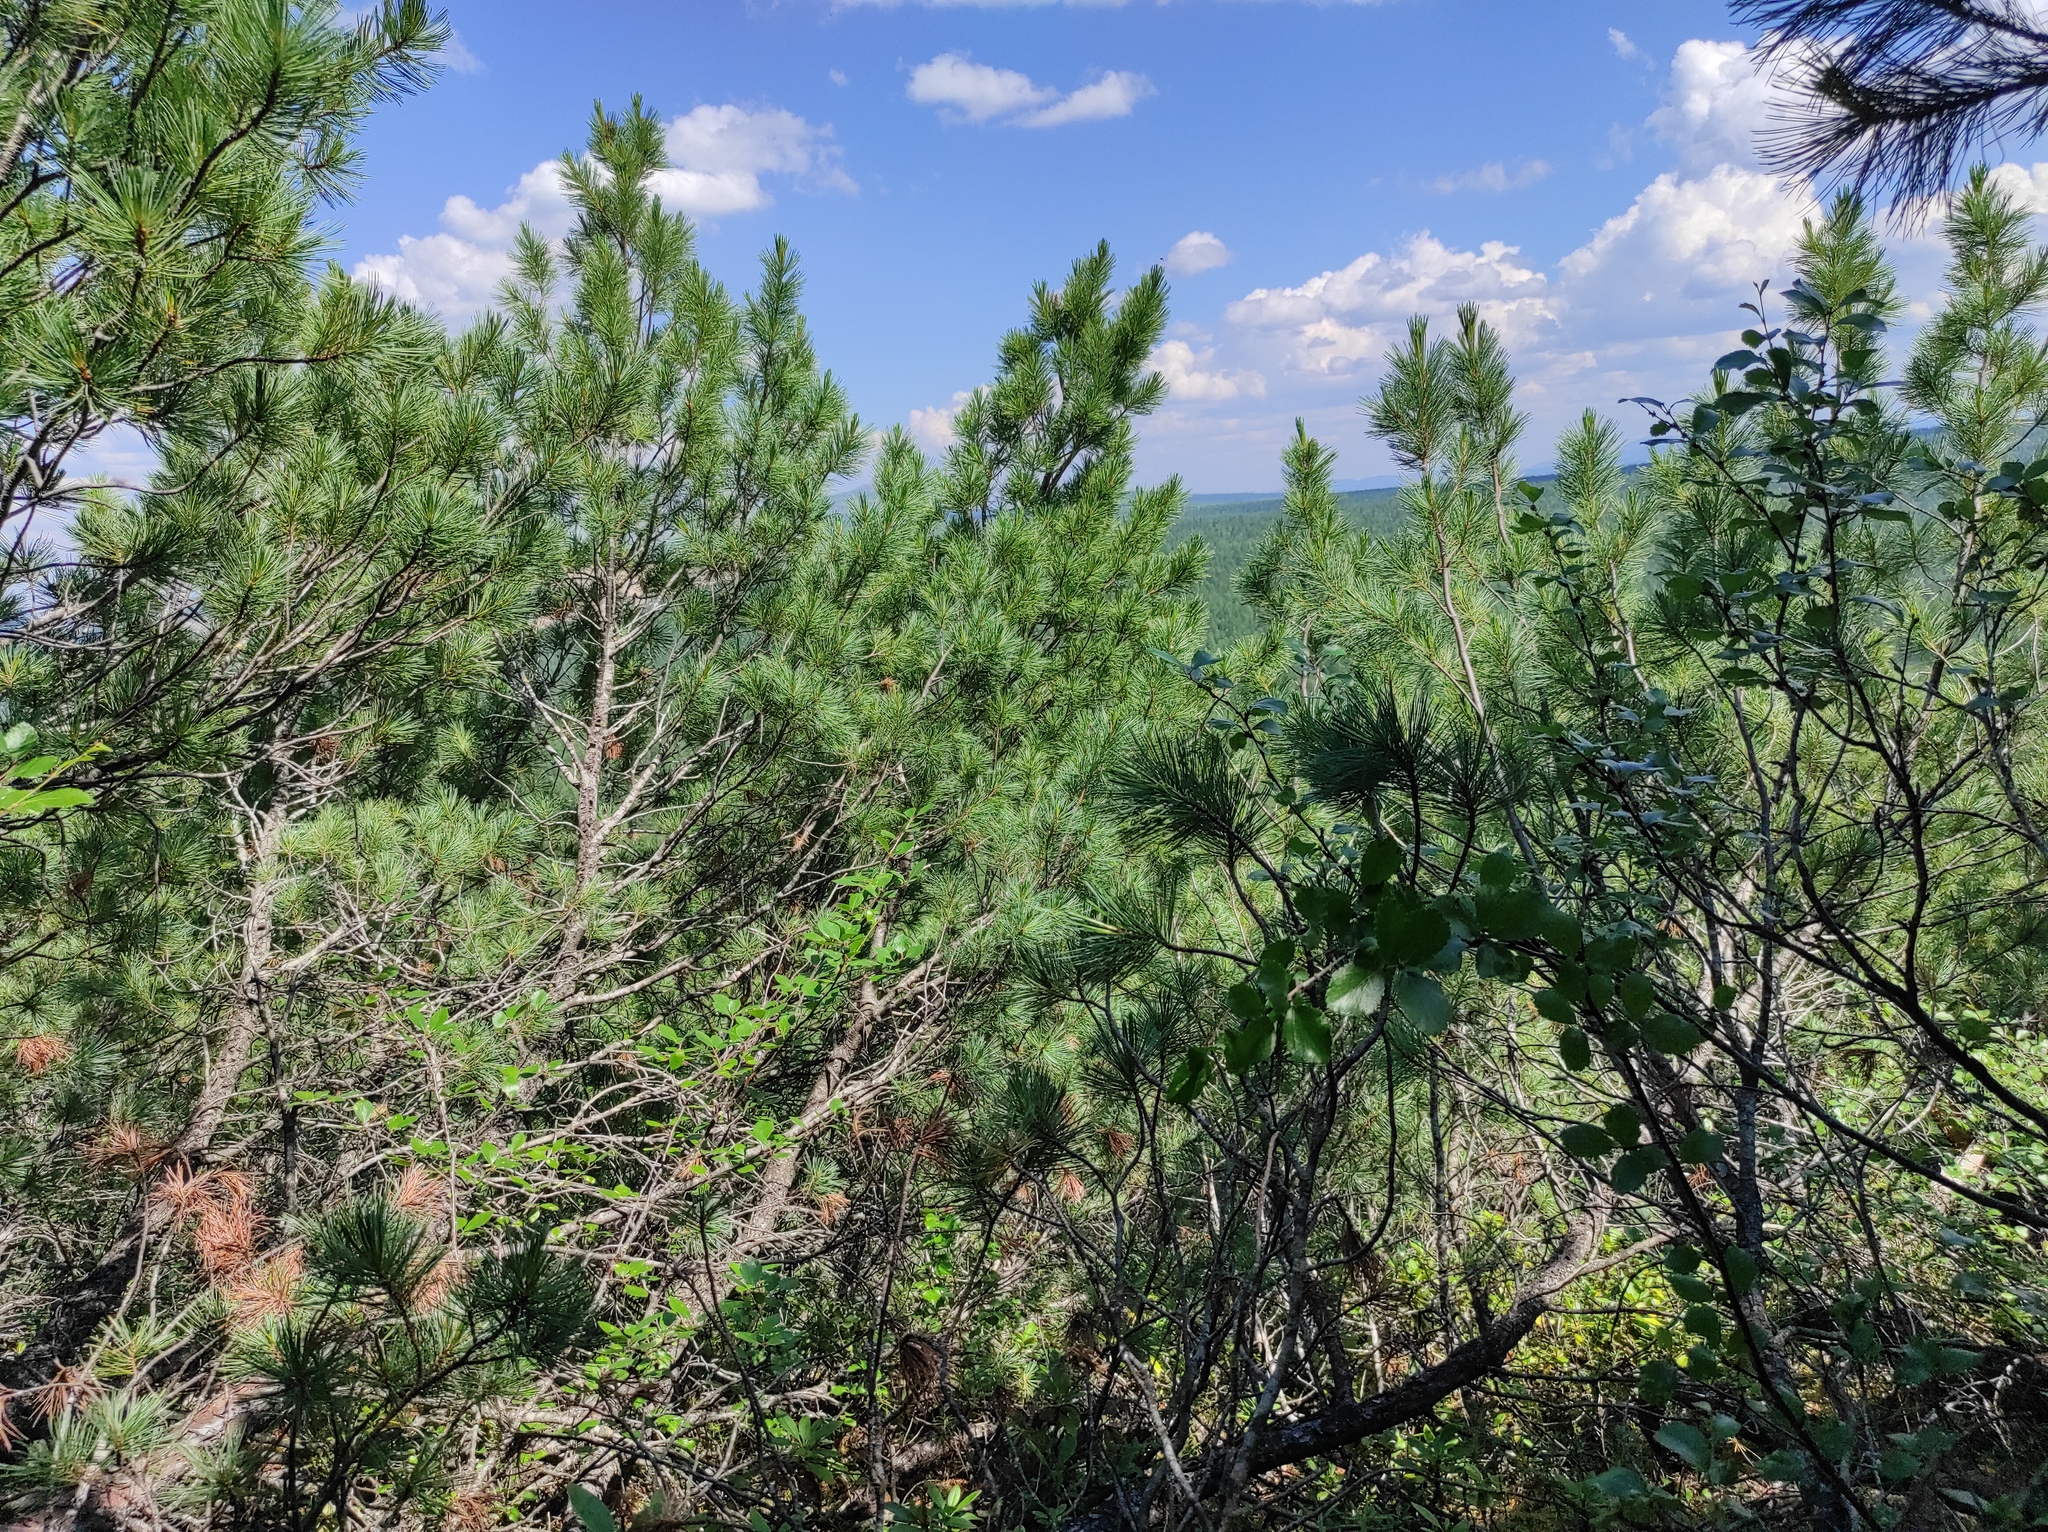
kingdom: Plantae
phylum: Tracheophyta
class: Pinopsida
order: Pinales
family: Pinaceae
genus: Pinus
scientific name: Pinus pumila
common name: Dwarf siberian pine
